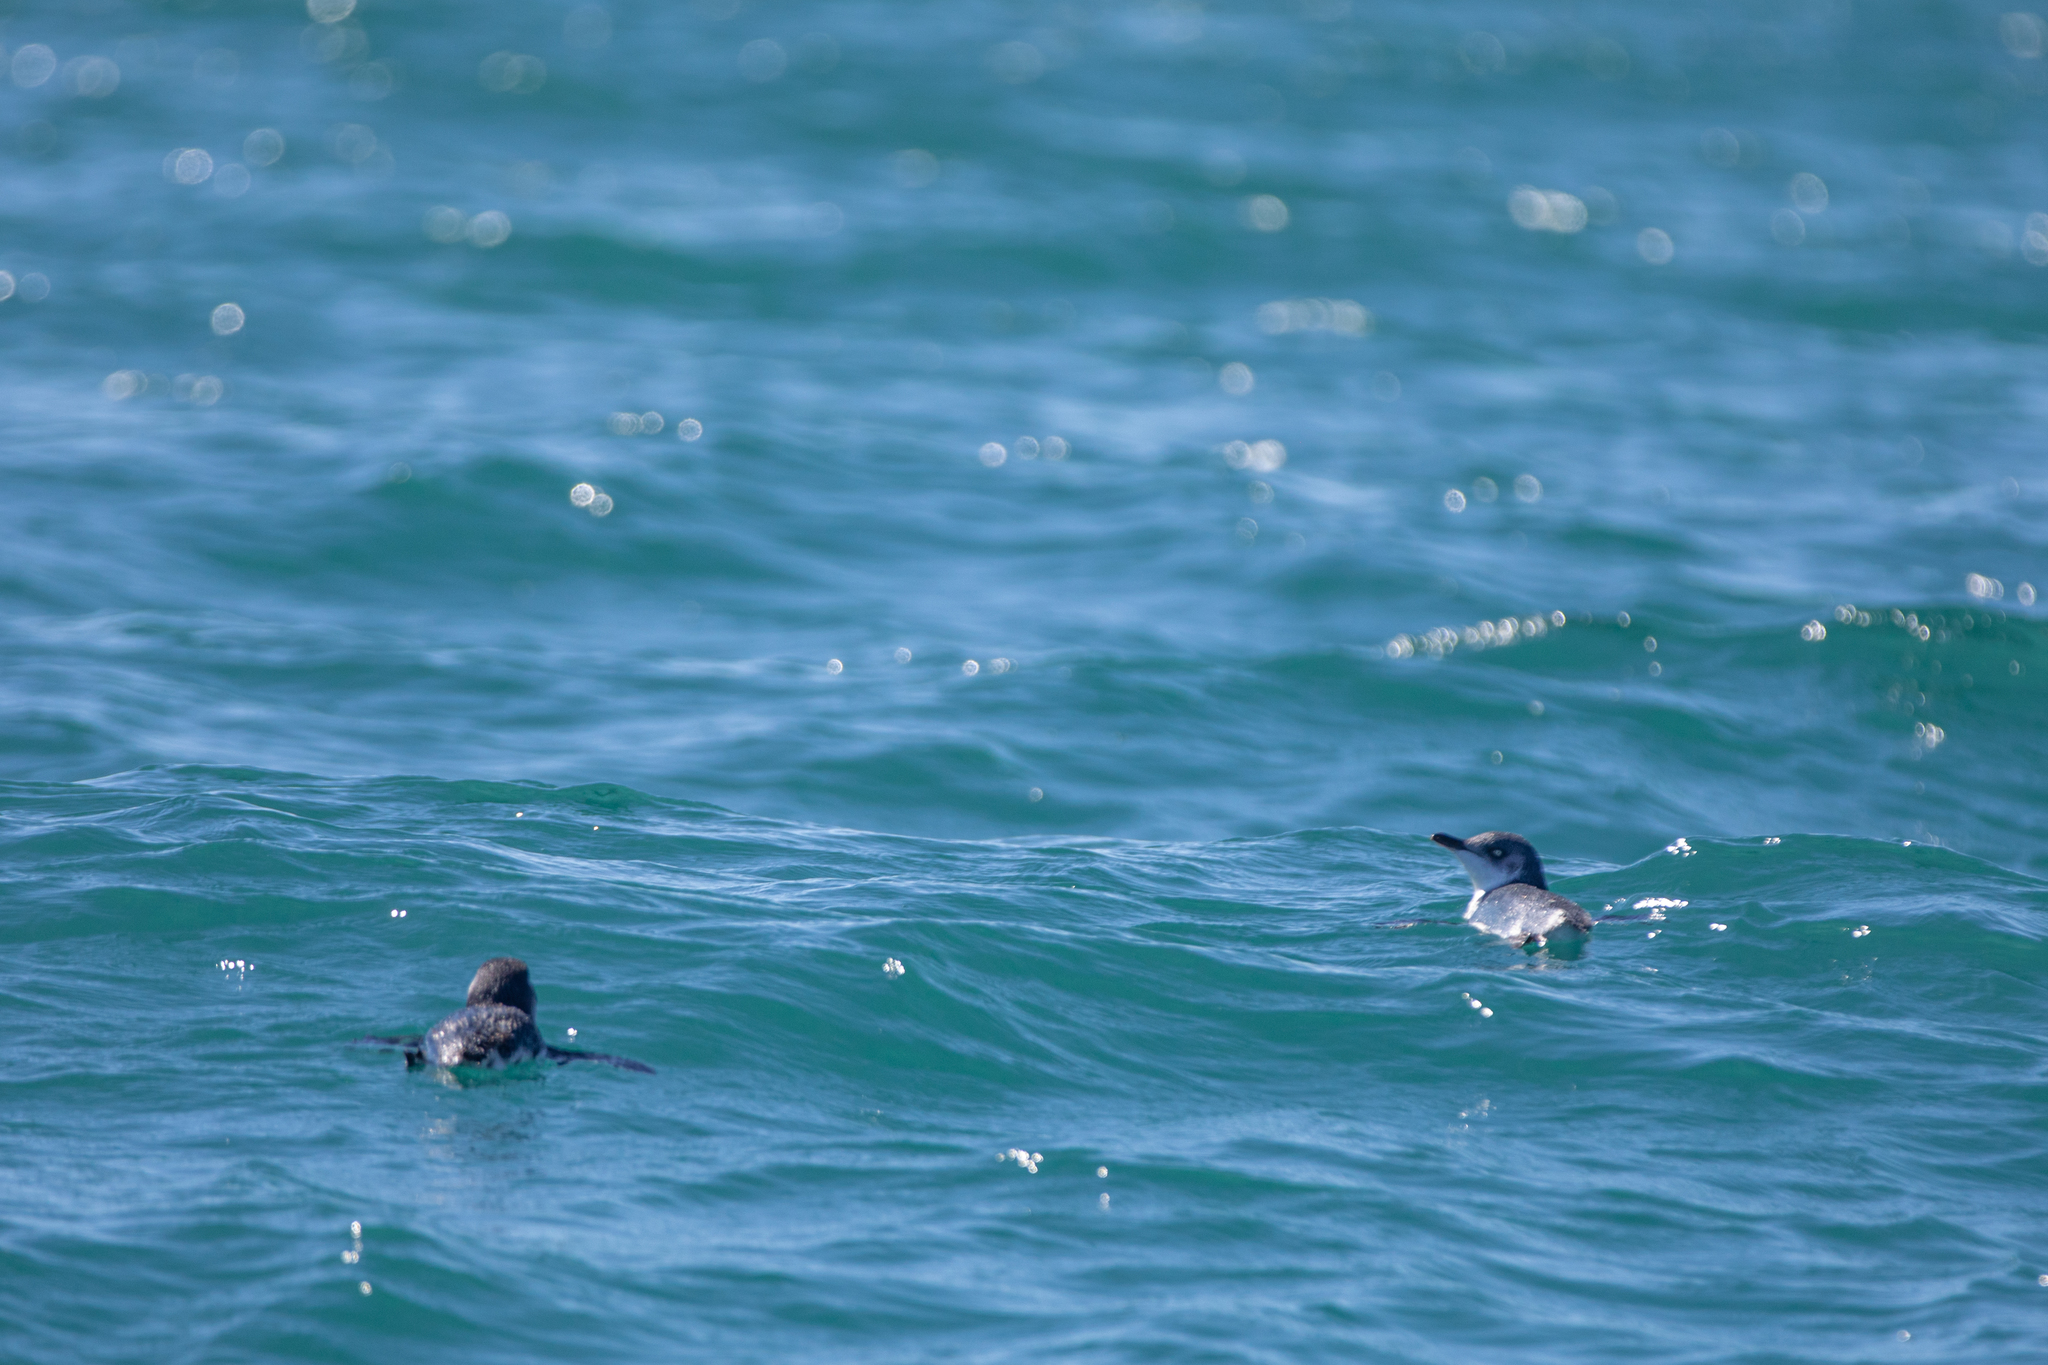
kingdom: Animalia
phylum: Chordata
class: Aves
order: Sphenisciformes
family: Spheniscidae
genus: Eudyptula
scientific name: Eudyptula minor
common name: Little penguin
